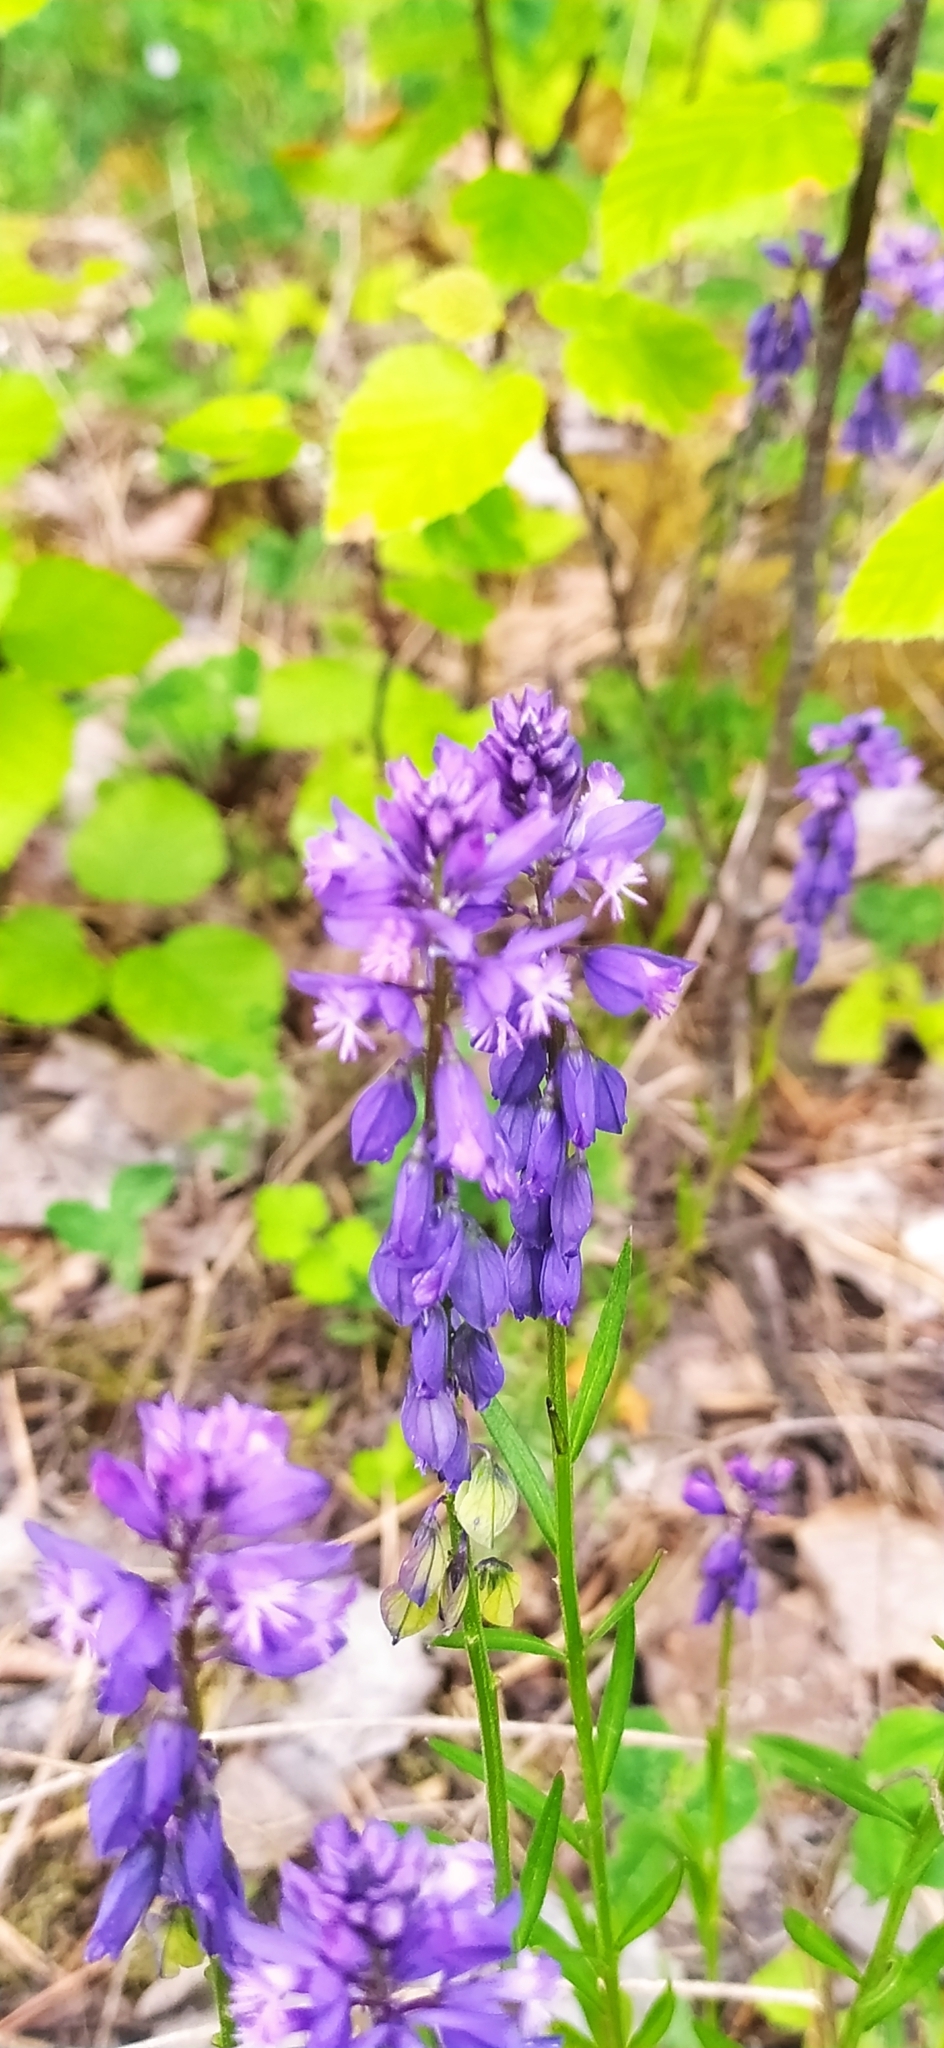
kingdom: Plantae
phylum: Tracheophyta
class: Magnoliopsida
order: Fabales
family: Polygalaceae
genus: Polygala
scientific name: Polygala comosa
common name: Tufted milkwort
